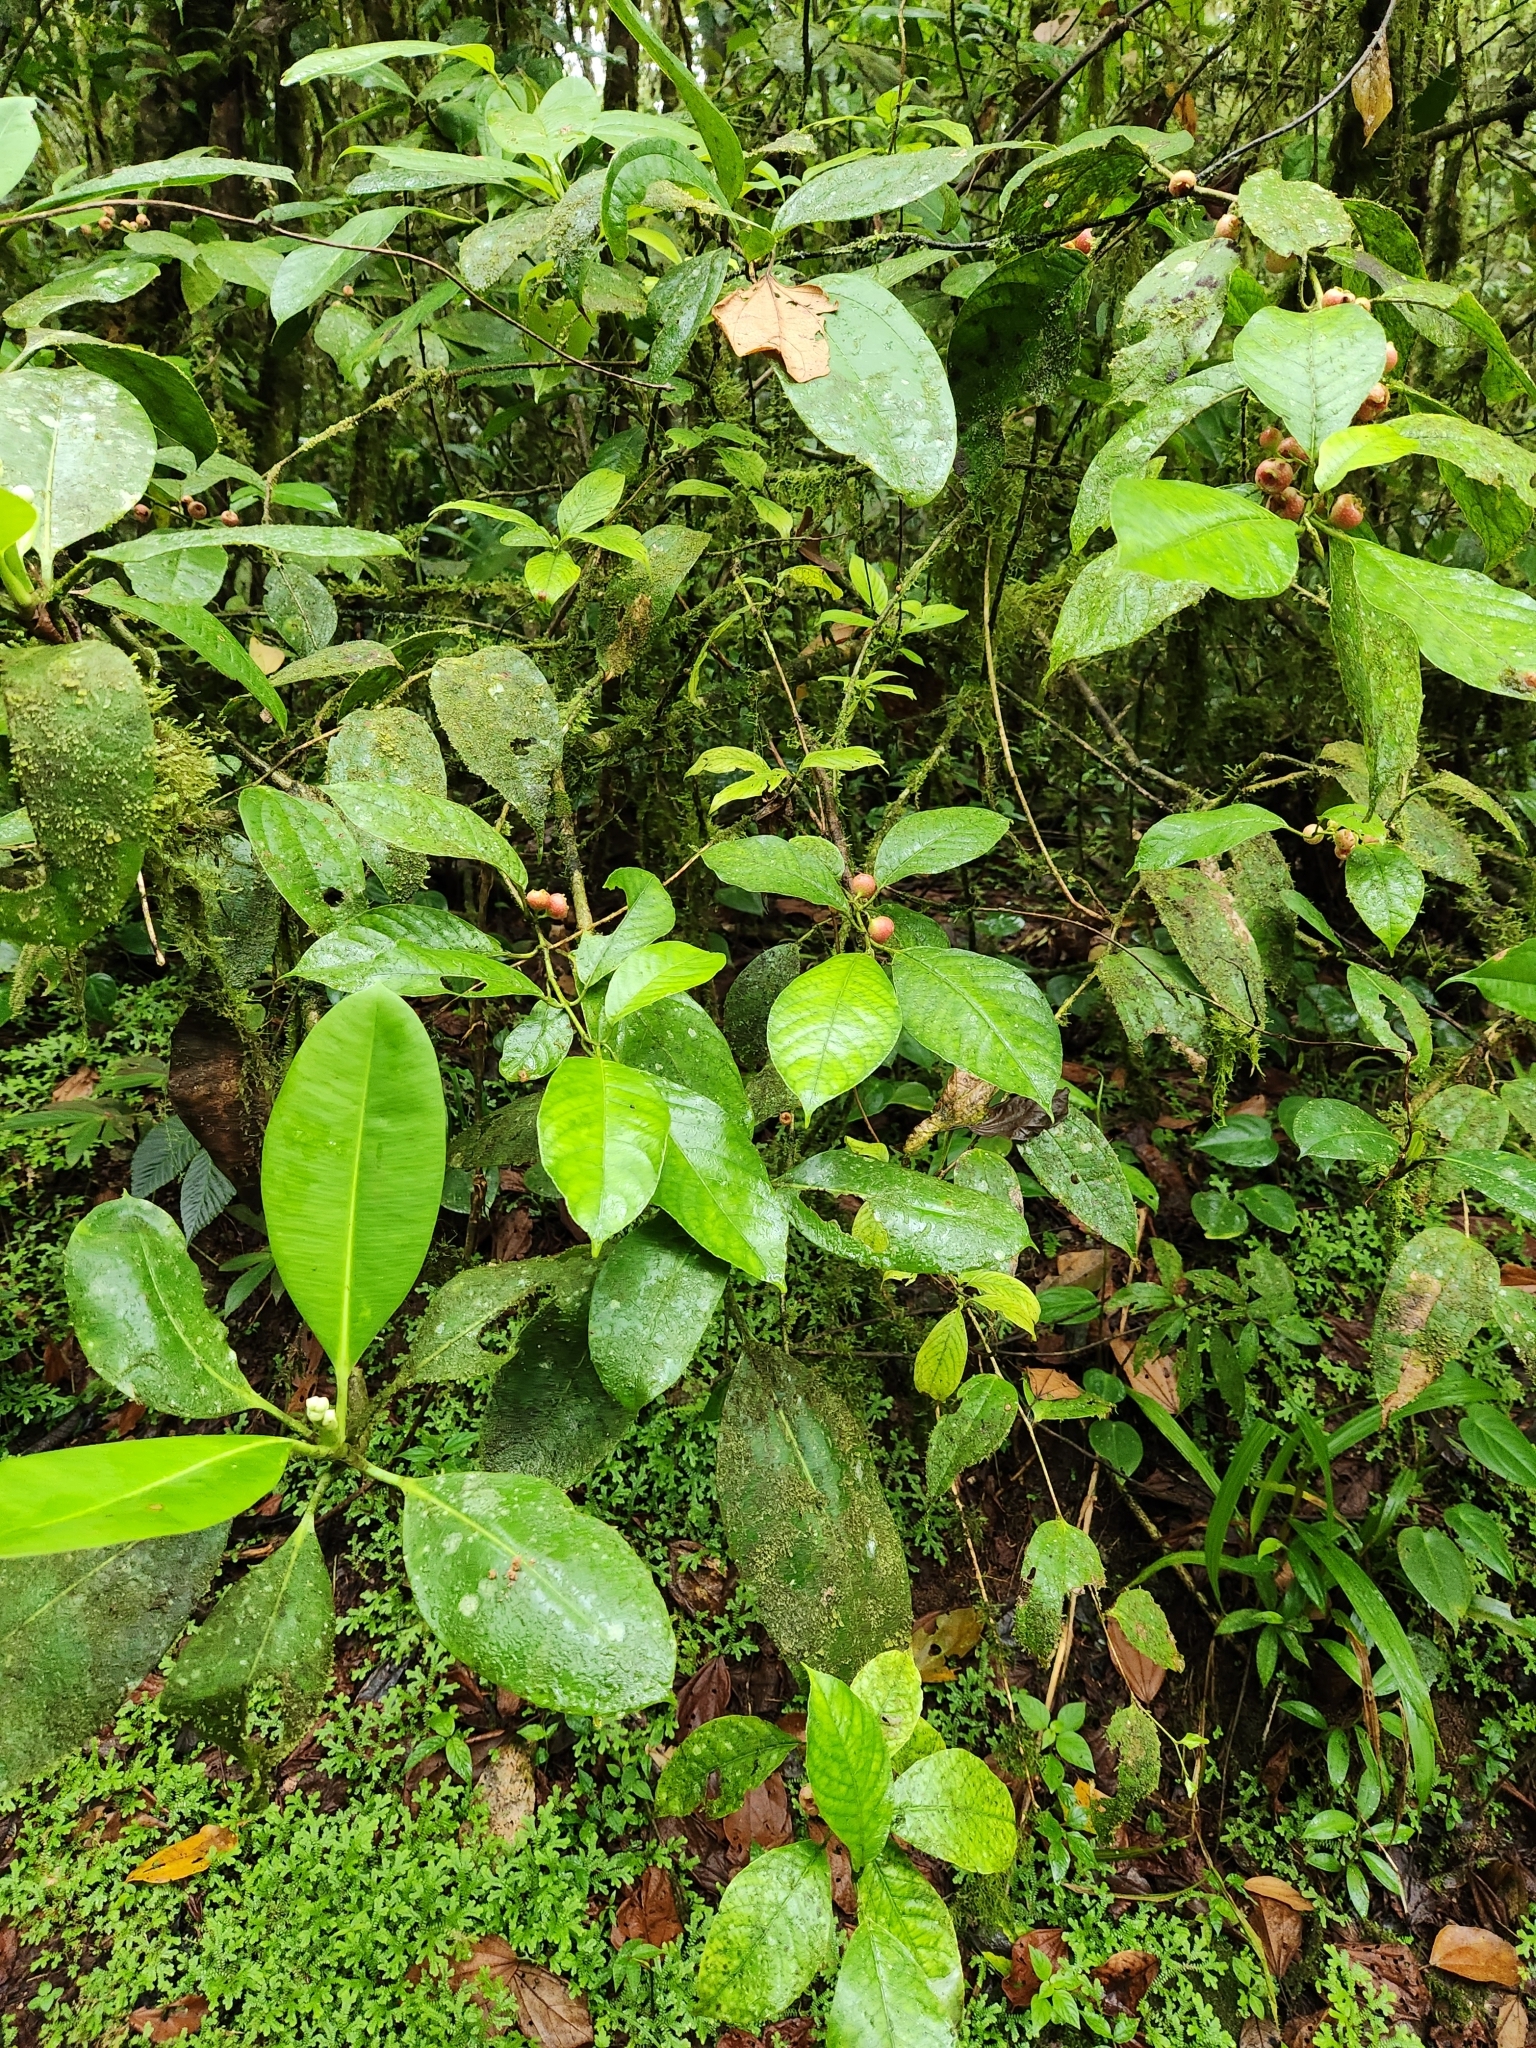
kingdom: Plantae
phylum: Tracheophyta
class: Magnoliopsida
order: Laurales
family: Siparunaceae
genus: Siparuna
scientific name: Siparuna thecaphora
